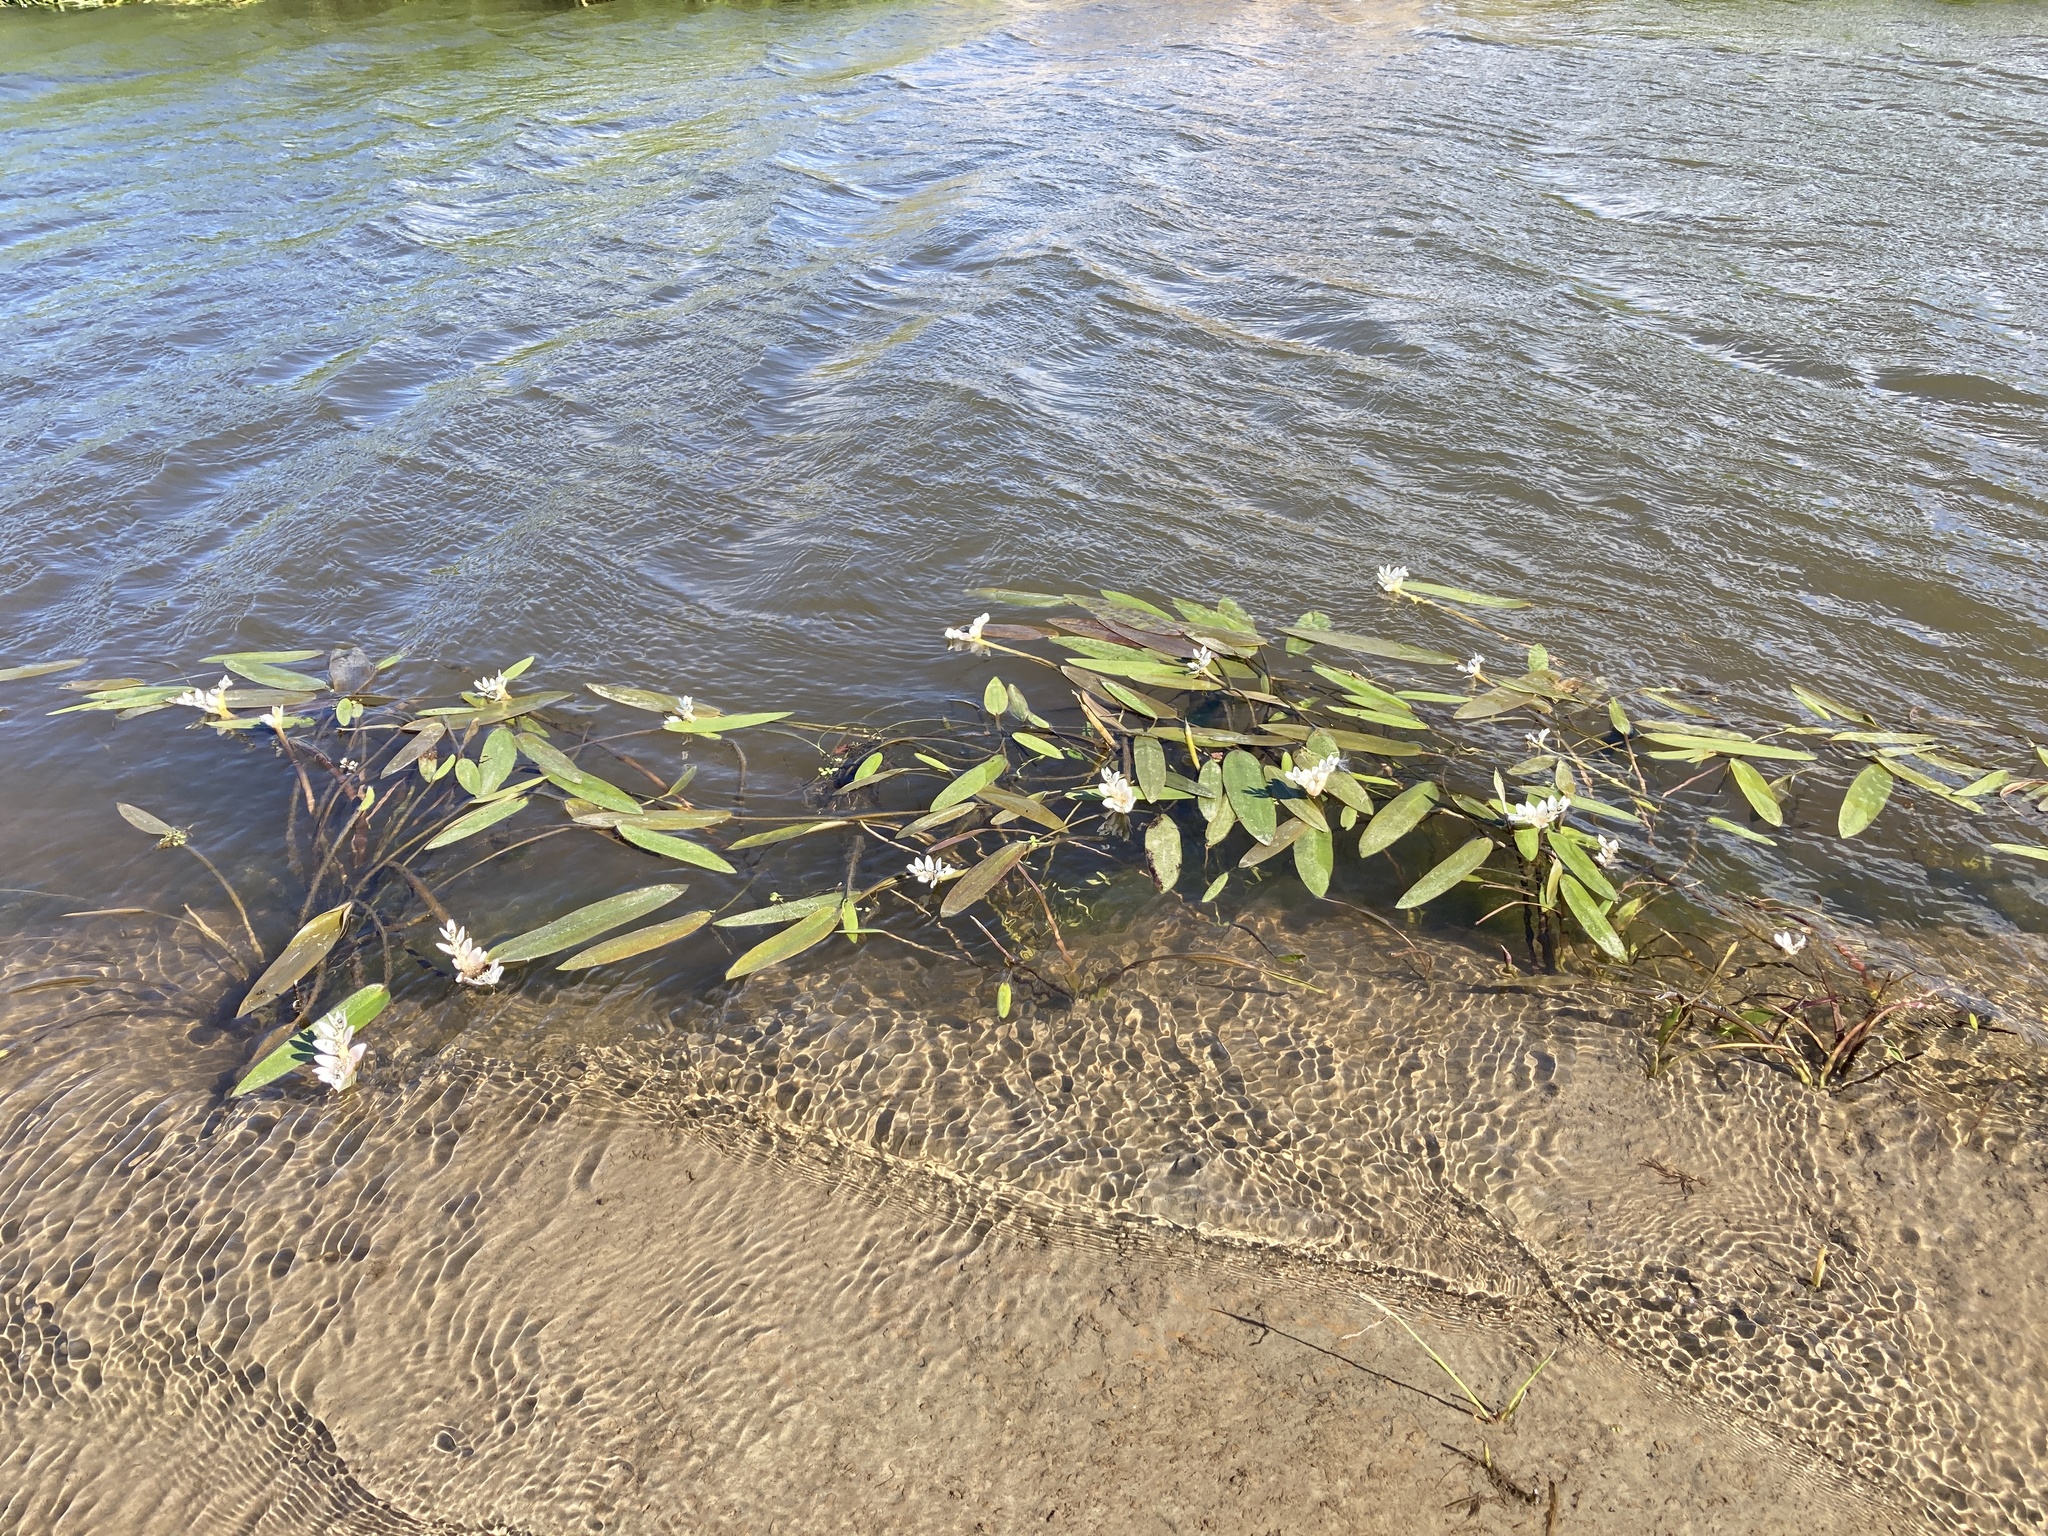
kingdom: Plantae
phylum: Tracheophyta
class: Liliopsida
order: Alismatales
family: Aponogetonaceae
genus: Aponogeton
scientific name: Aponogeton distachyos
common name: Cape-pondweed
